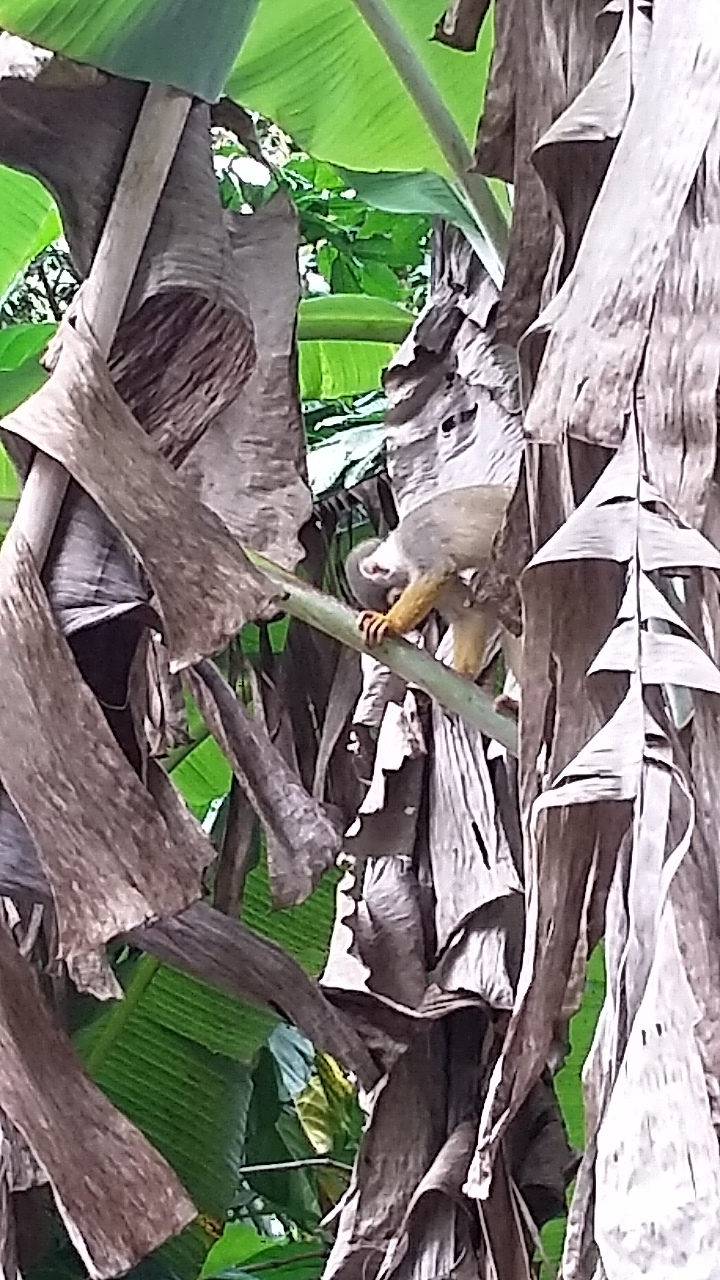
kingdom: Animalia
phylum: Chordata
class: Mammalia
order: Primates
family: Cebidae
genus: Saimiri
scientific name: Saimiri cassiquiarensis
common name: Humboldt’s squirrel monkey
